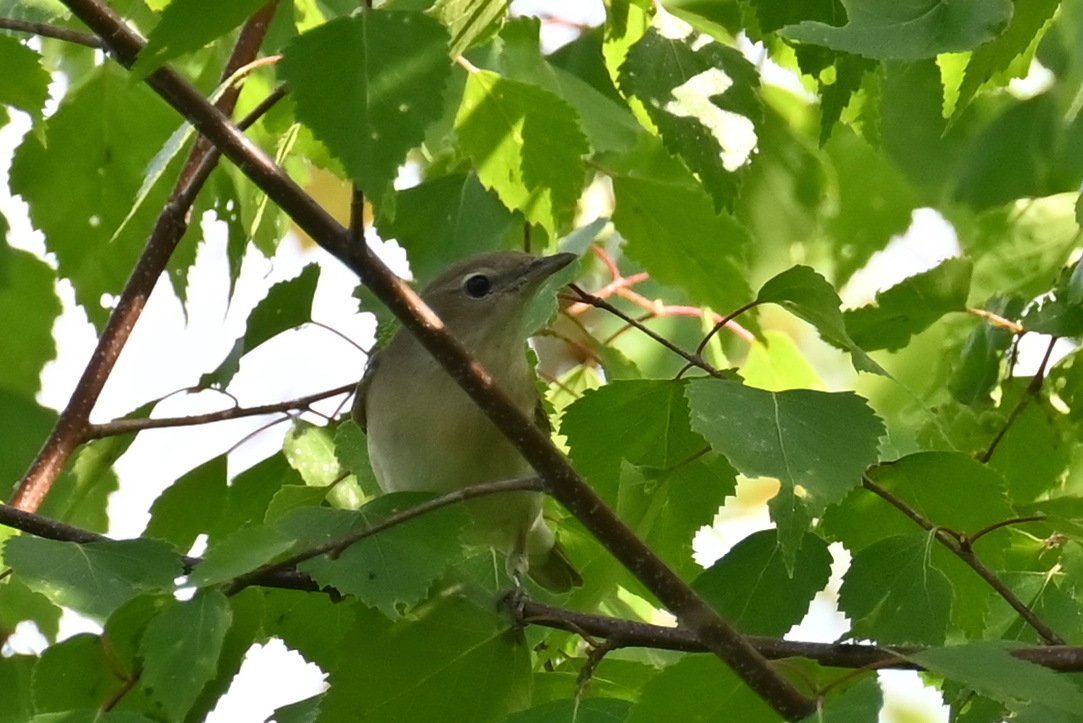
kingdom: Animalia
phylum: Chordata
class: Aves
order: Passeriformes
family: Sylviidae
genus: Sylvia
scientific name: Sylvia borin
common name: Garden warbler
